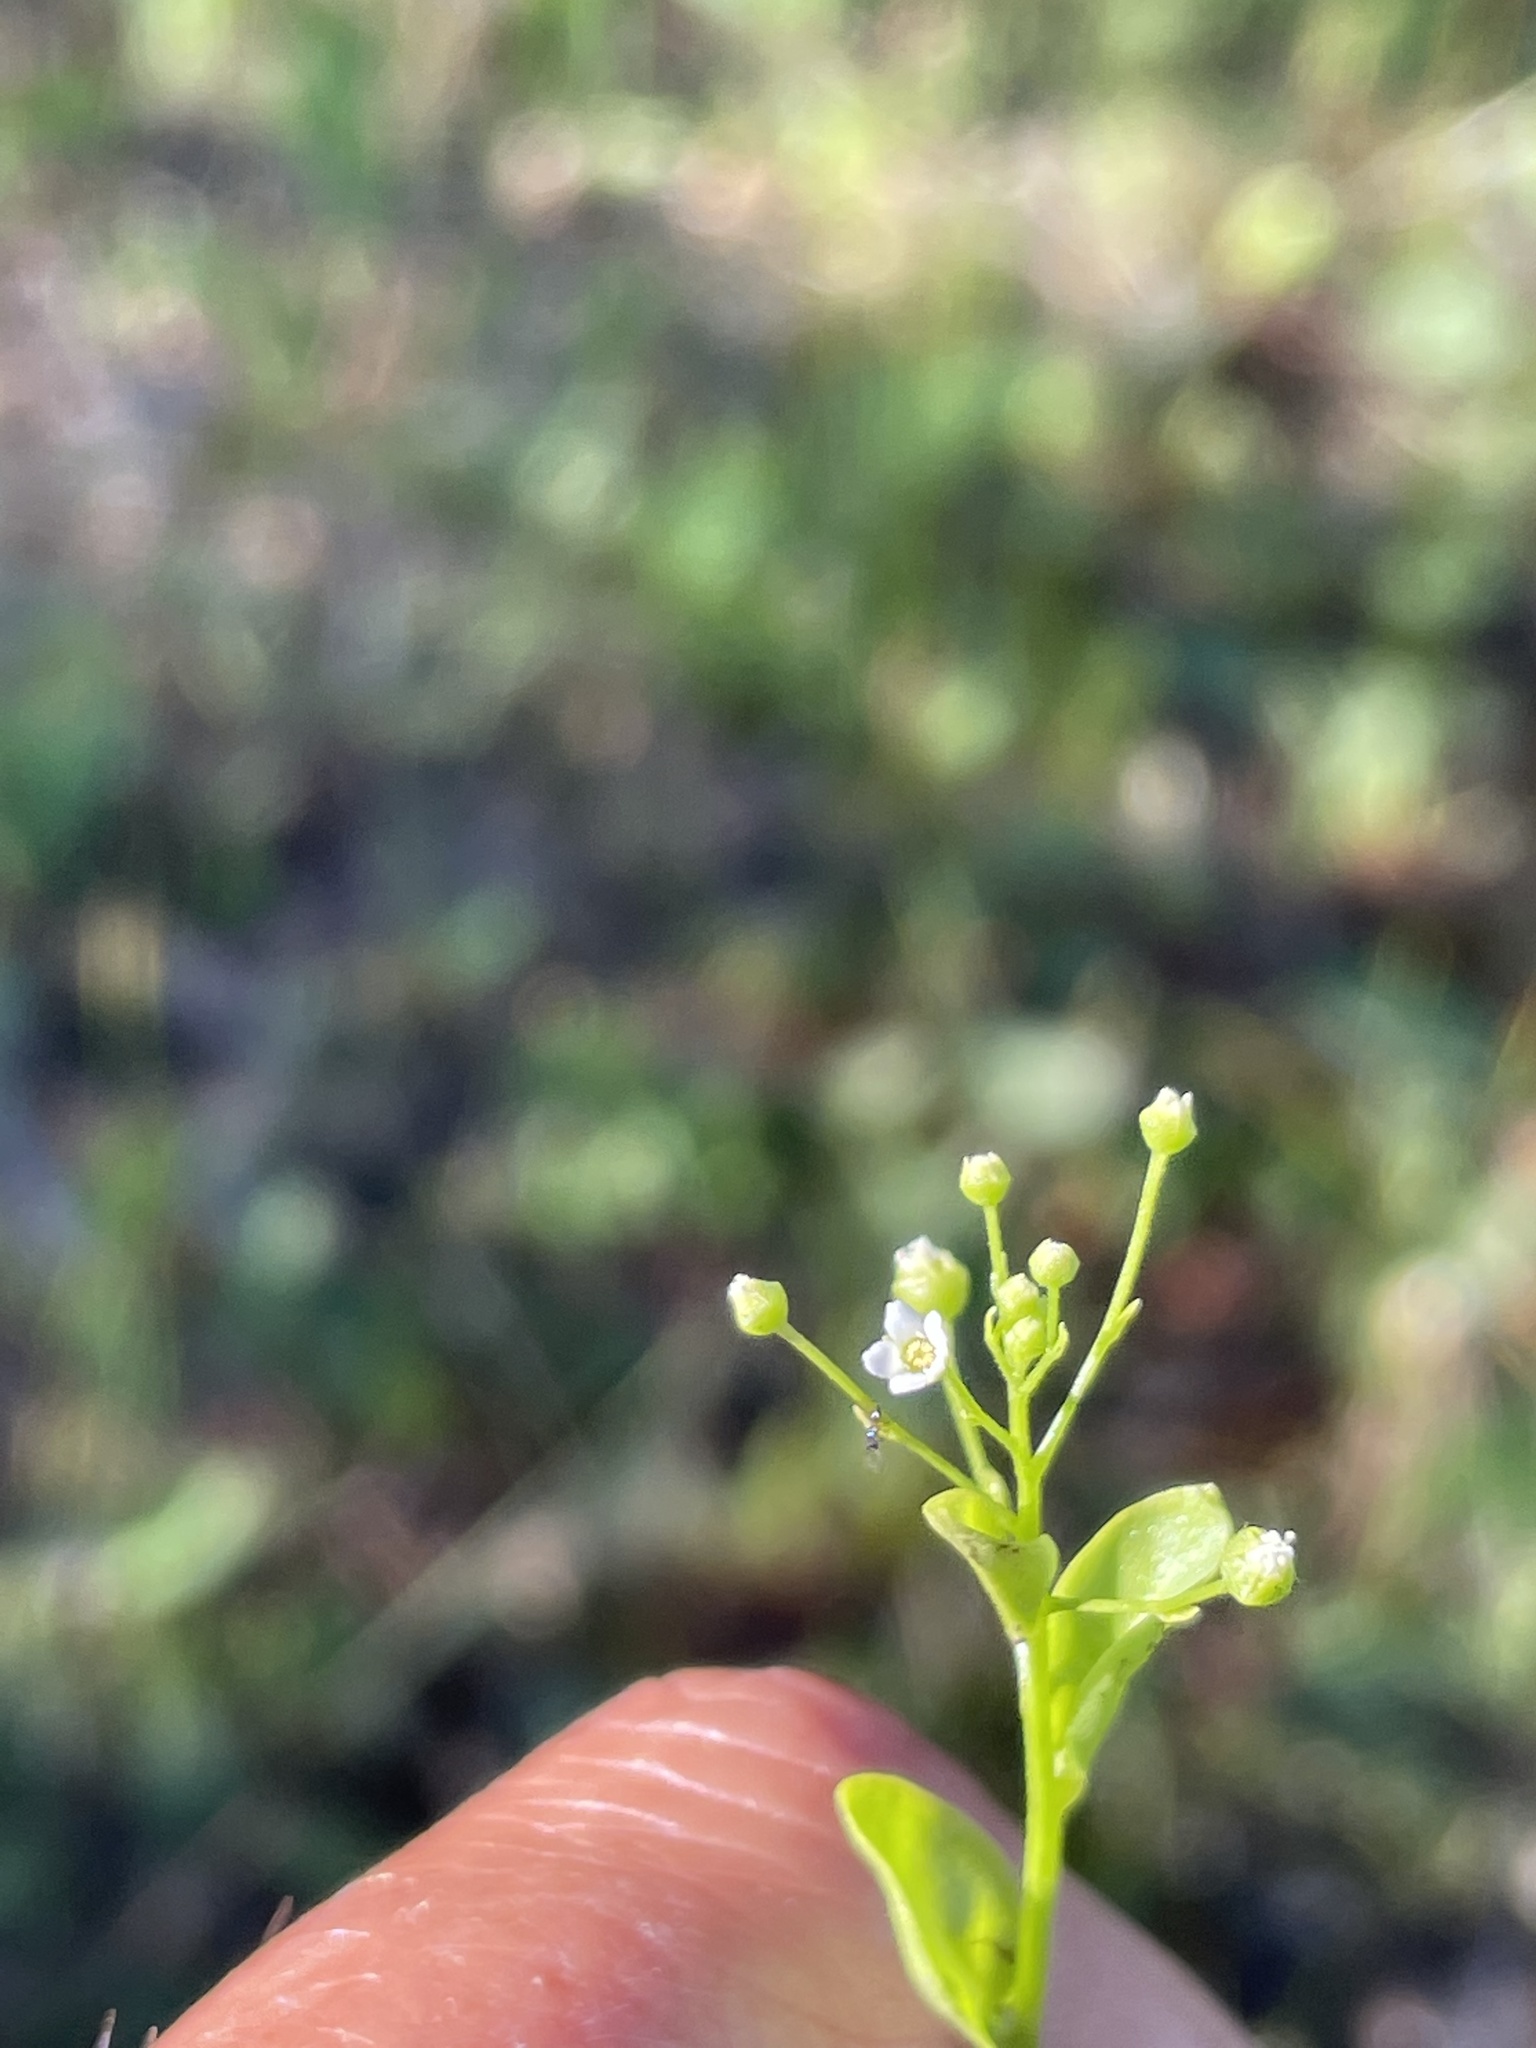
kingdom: Plantae
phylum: Tracheophyta
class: Magnoliopsida
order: Ericales
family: Primulaceae
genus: Samolus
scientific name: Samolus parviflorus
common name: False water pimpernel
